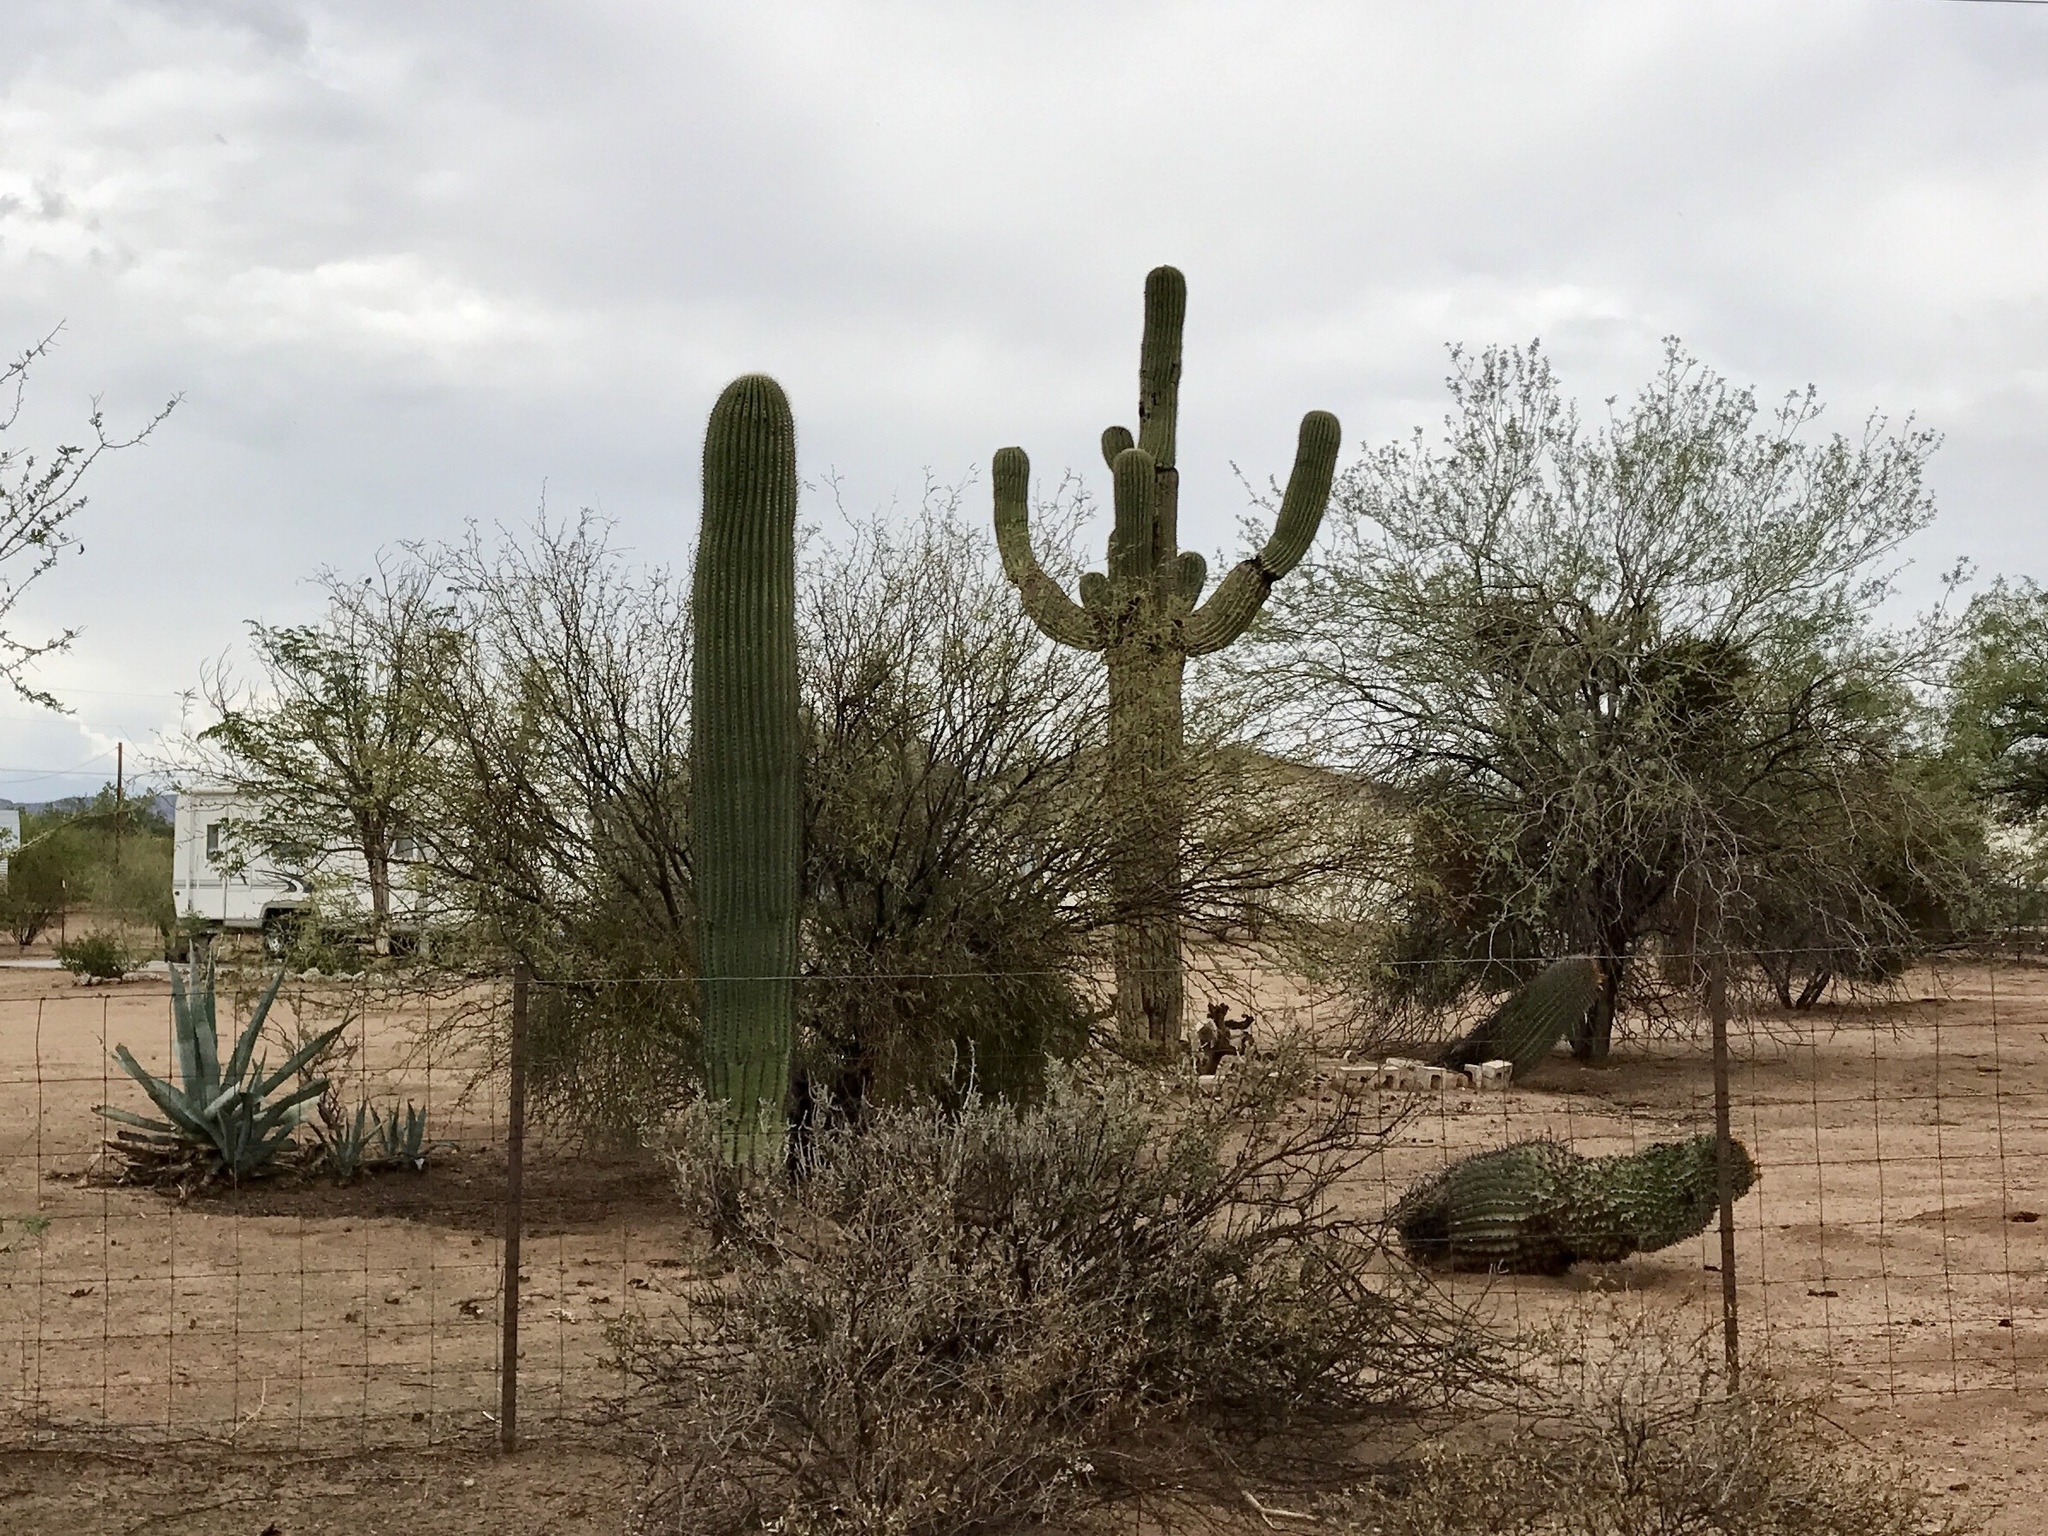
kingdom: Plantae
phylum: Tracheophyta
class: Magnoliopsida
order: Caryophyllales
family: Cactaceae
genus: Carnegiea
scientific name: Carnegiea gigantea
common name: Saguaro
